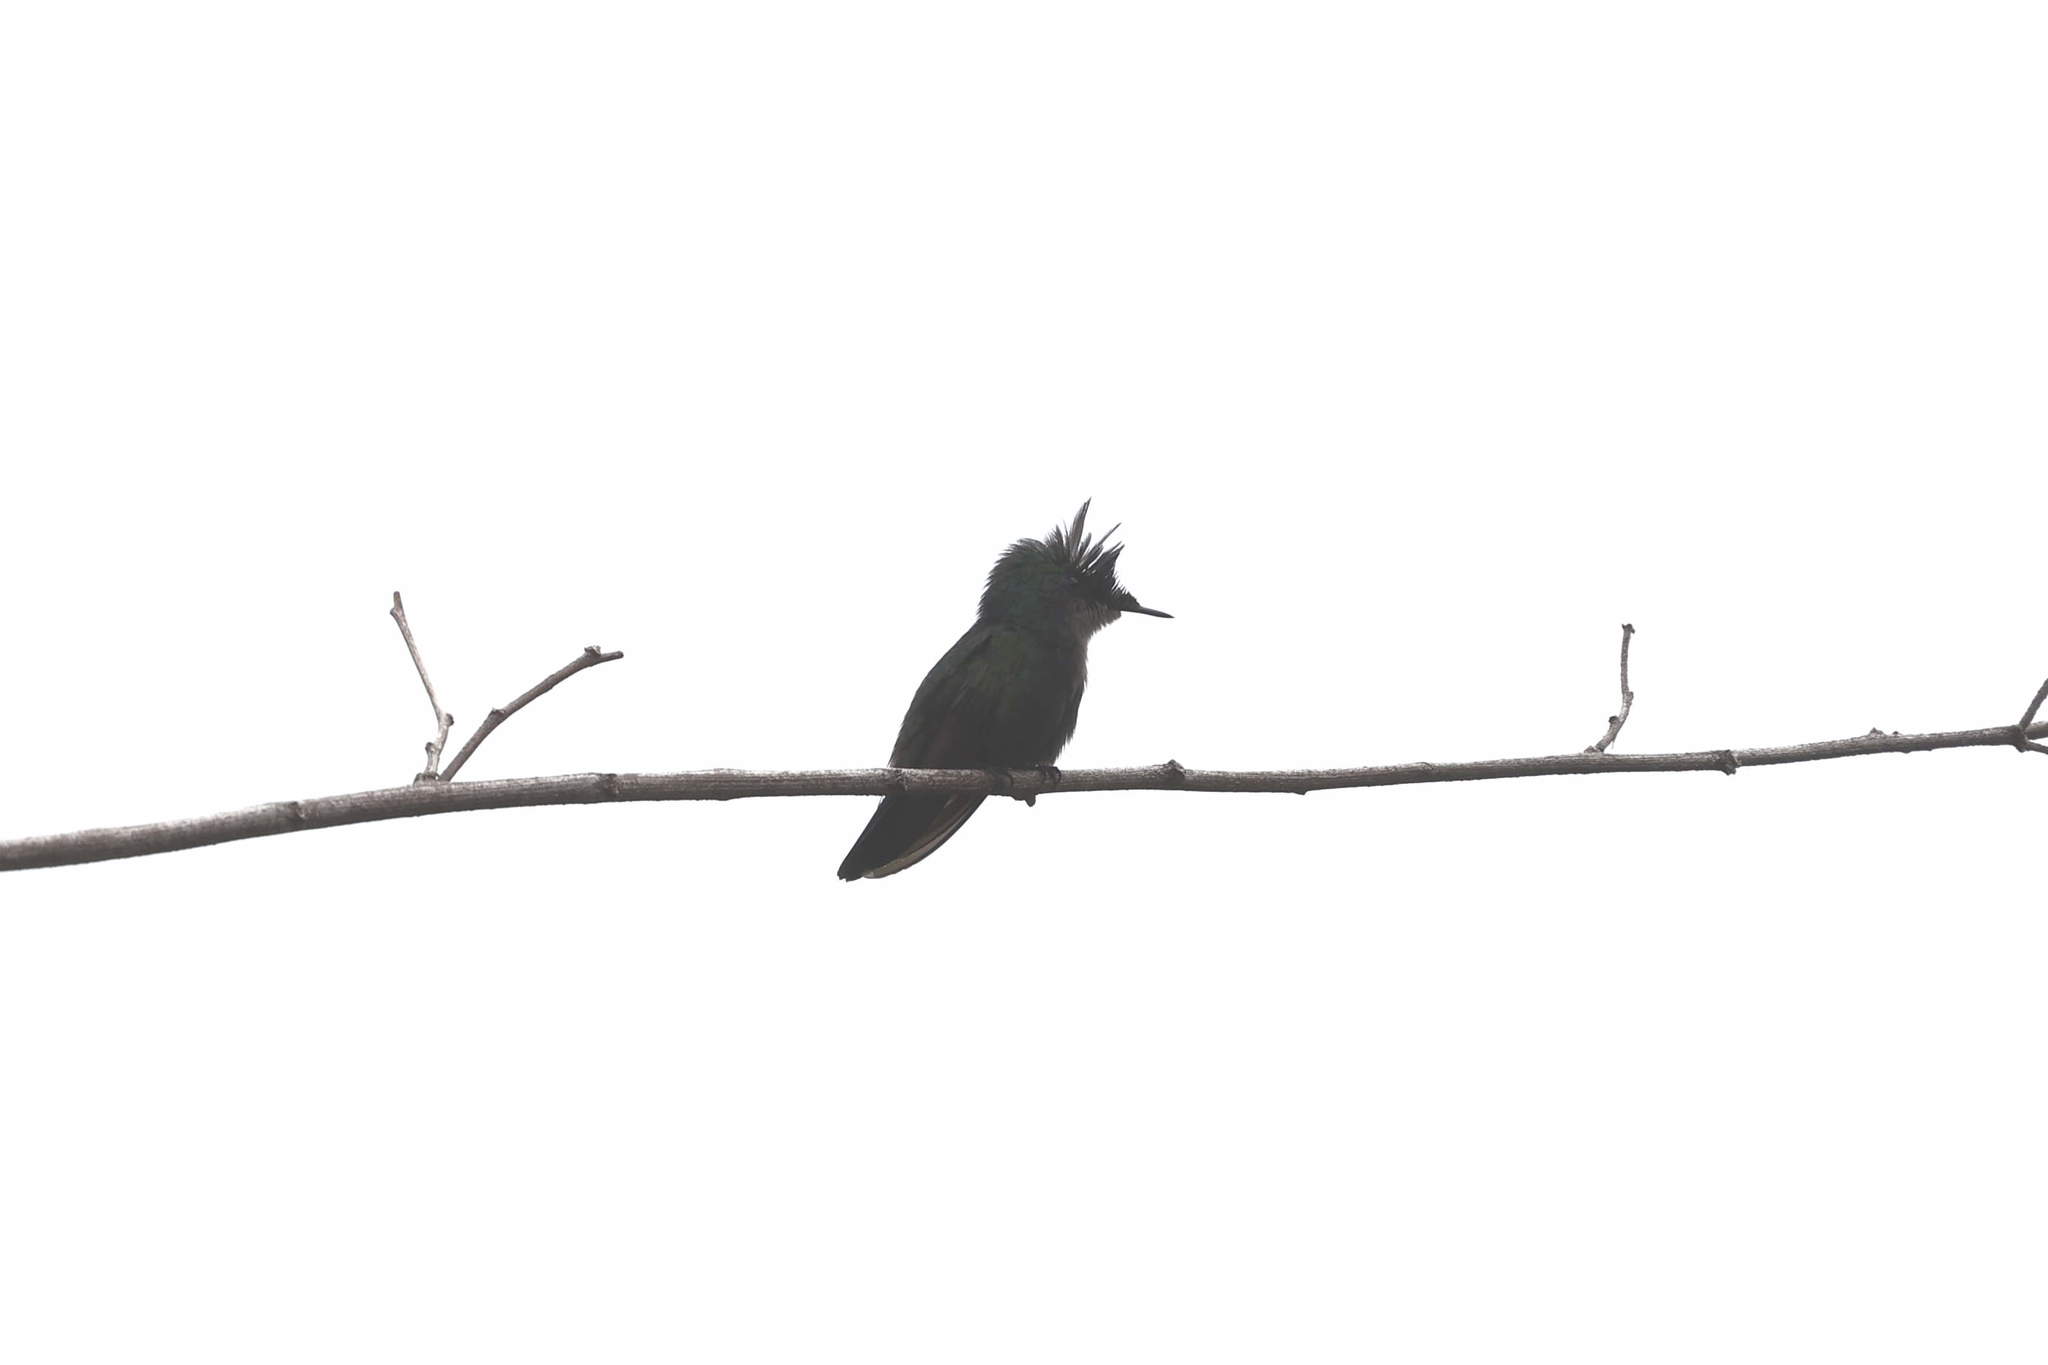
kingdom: Animalia
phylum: Chordata
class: Aves
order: Apodiformes
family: Trochilidae
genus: Orthorhyncus
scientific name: Orthorhyncus cristatus
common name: Antillean crested hummingbird
